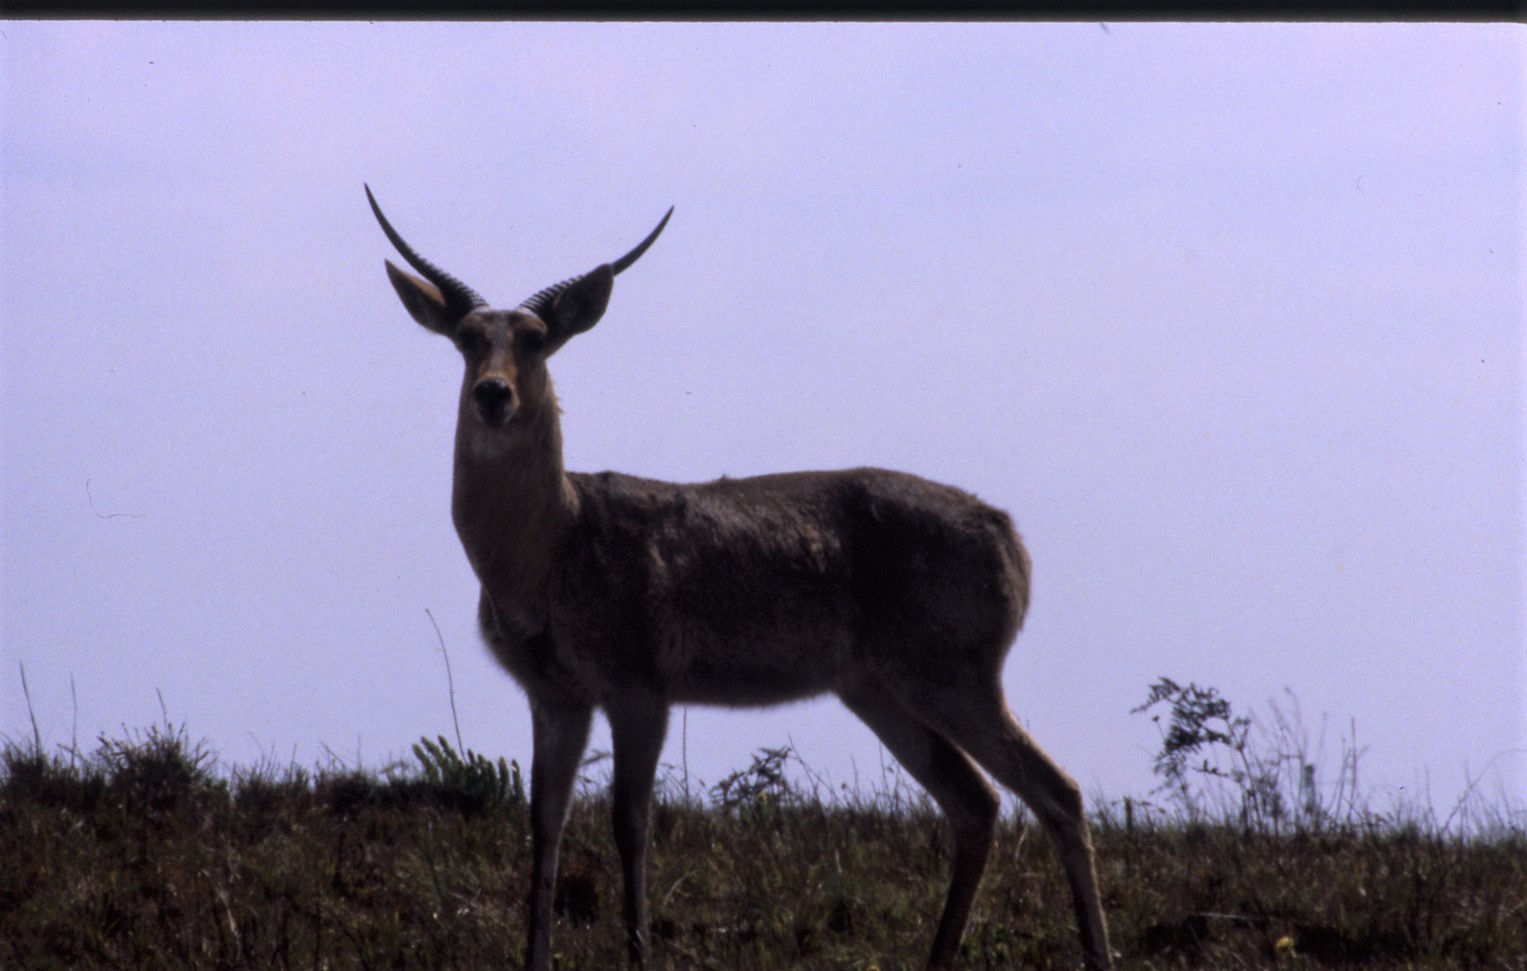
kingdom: Animalia
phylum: Chordata
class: Mammalia
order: Artiodactyla
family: Bovidae
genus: Redunca
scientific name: Redunca arundinum
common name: Southern reedbuck
